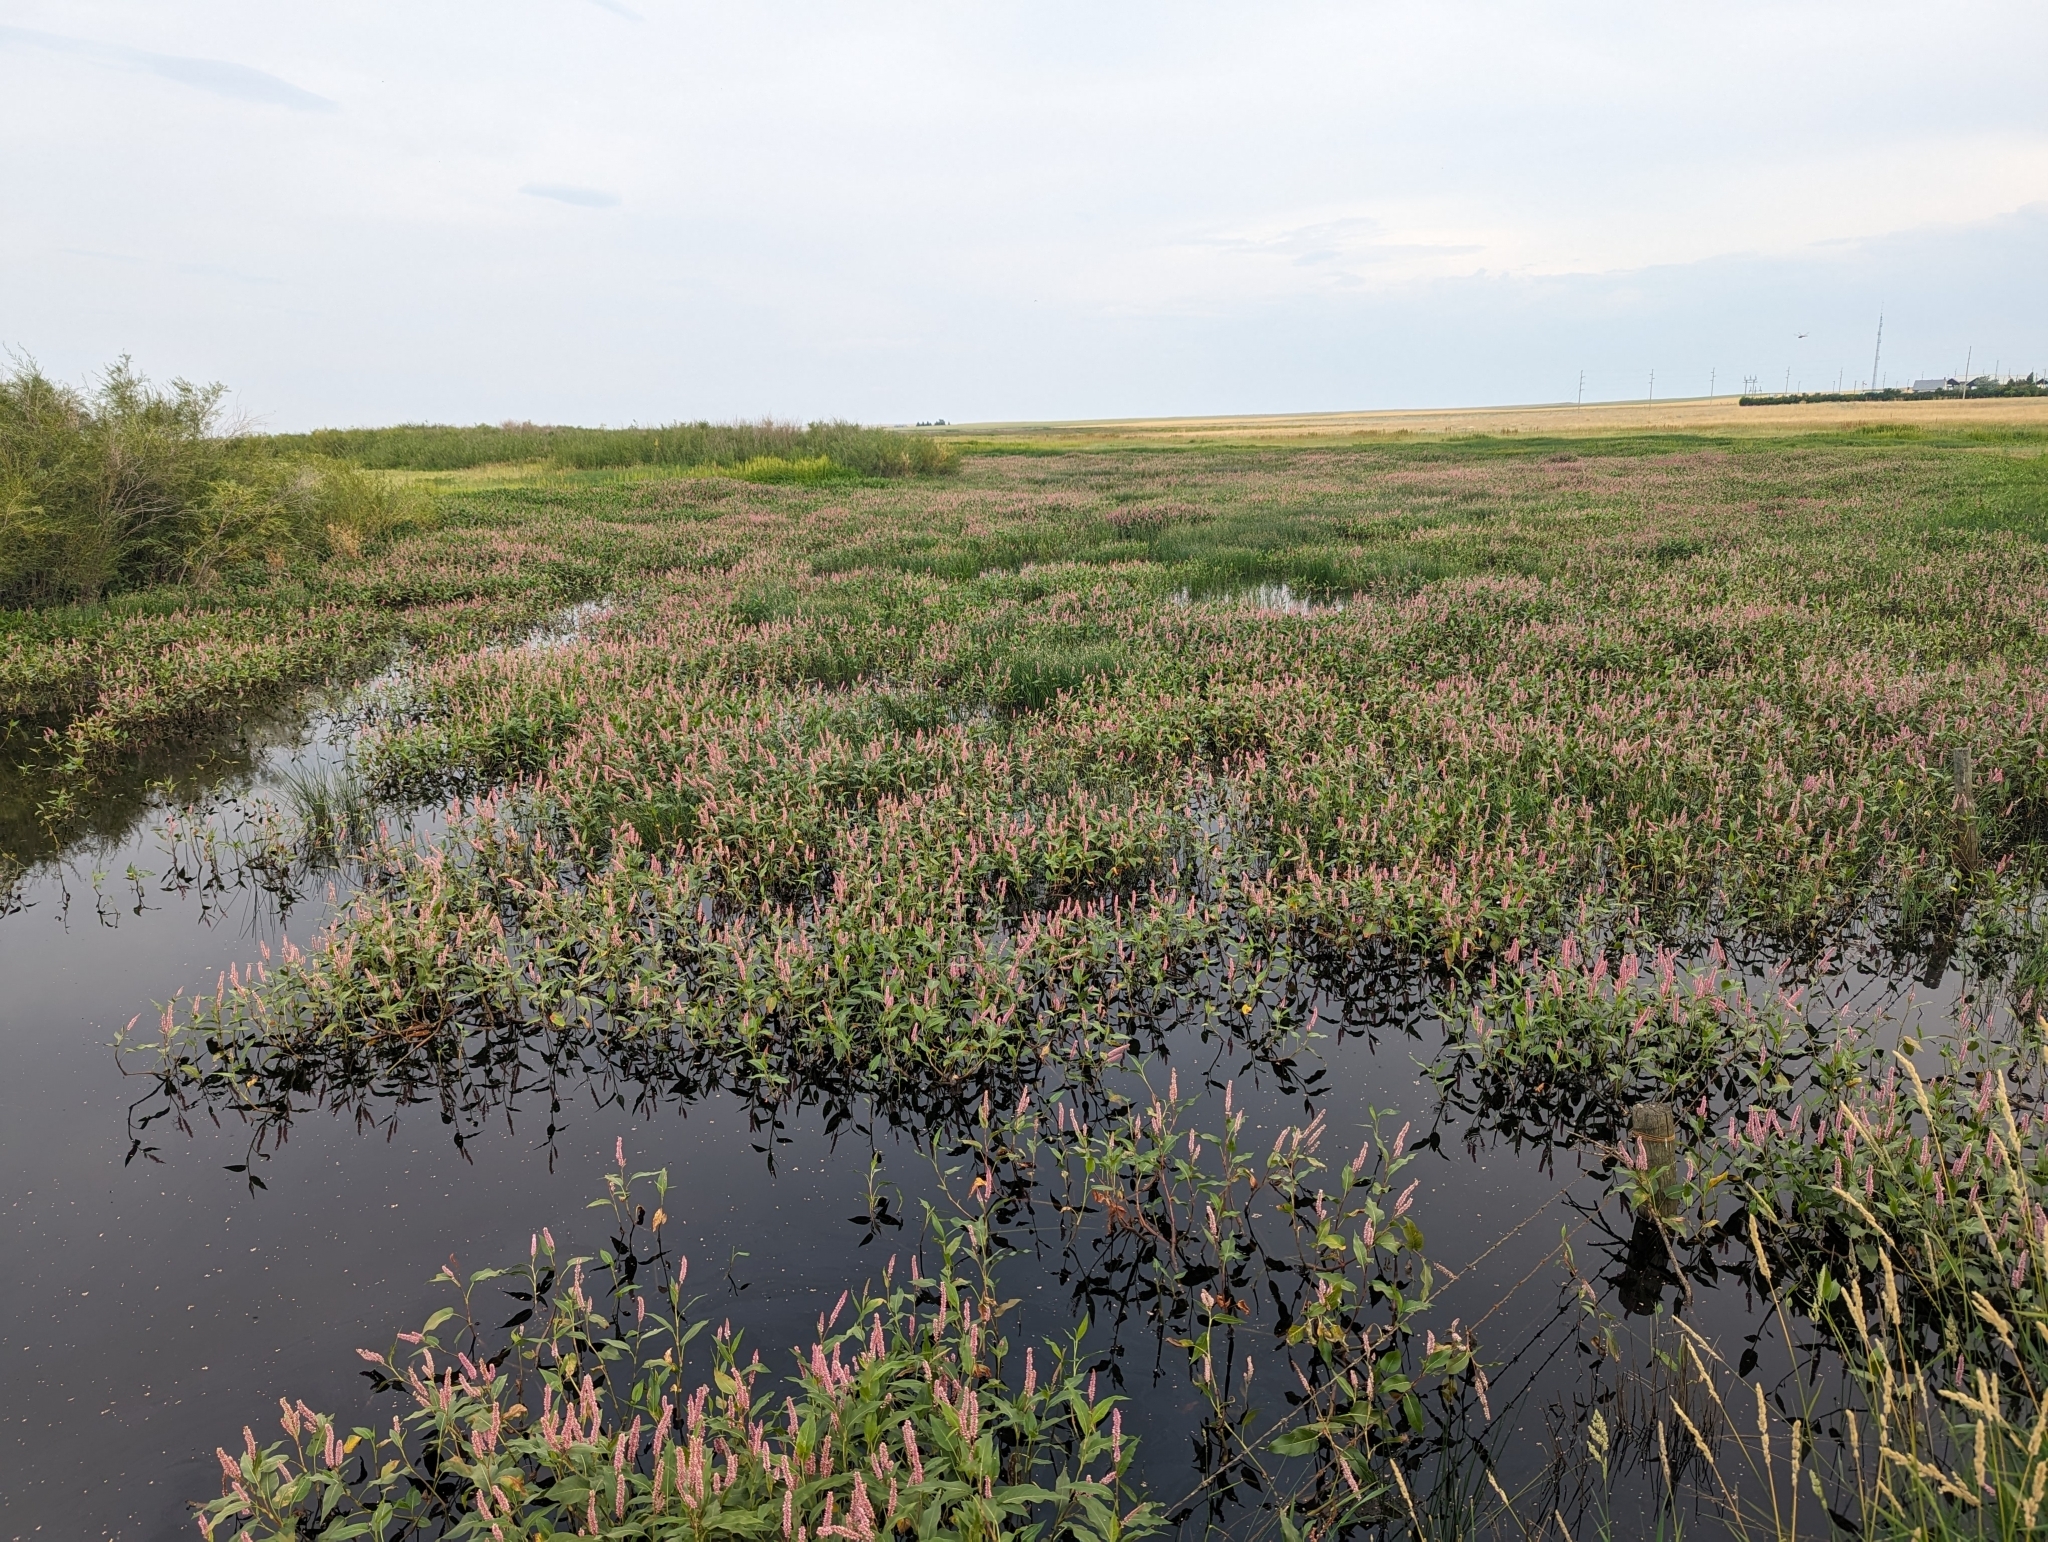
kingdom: Plantae
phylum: Tracheophyta
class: Magnoliopsida
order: Caryophyllales
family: Polygonaceae
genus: Persicaria
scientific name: Persicaria amphibia
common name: Amphibious bistort
